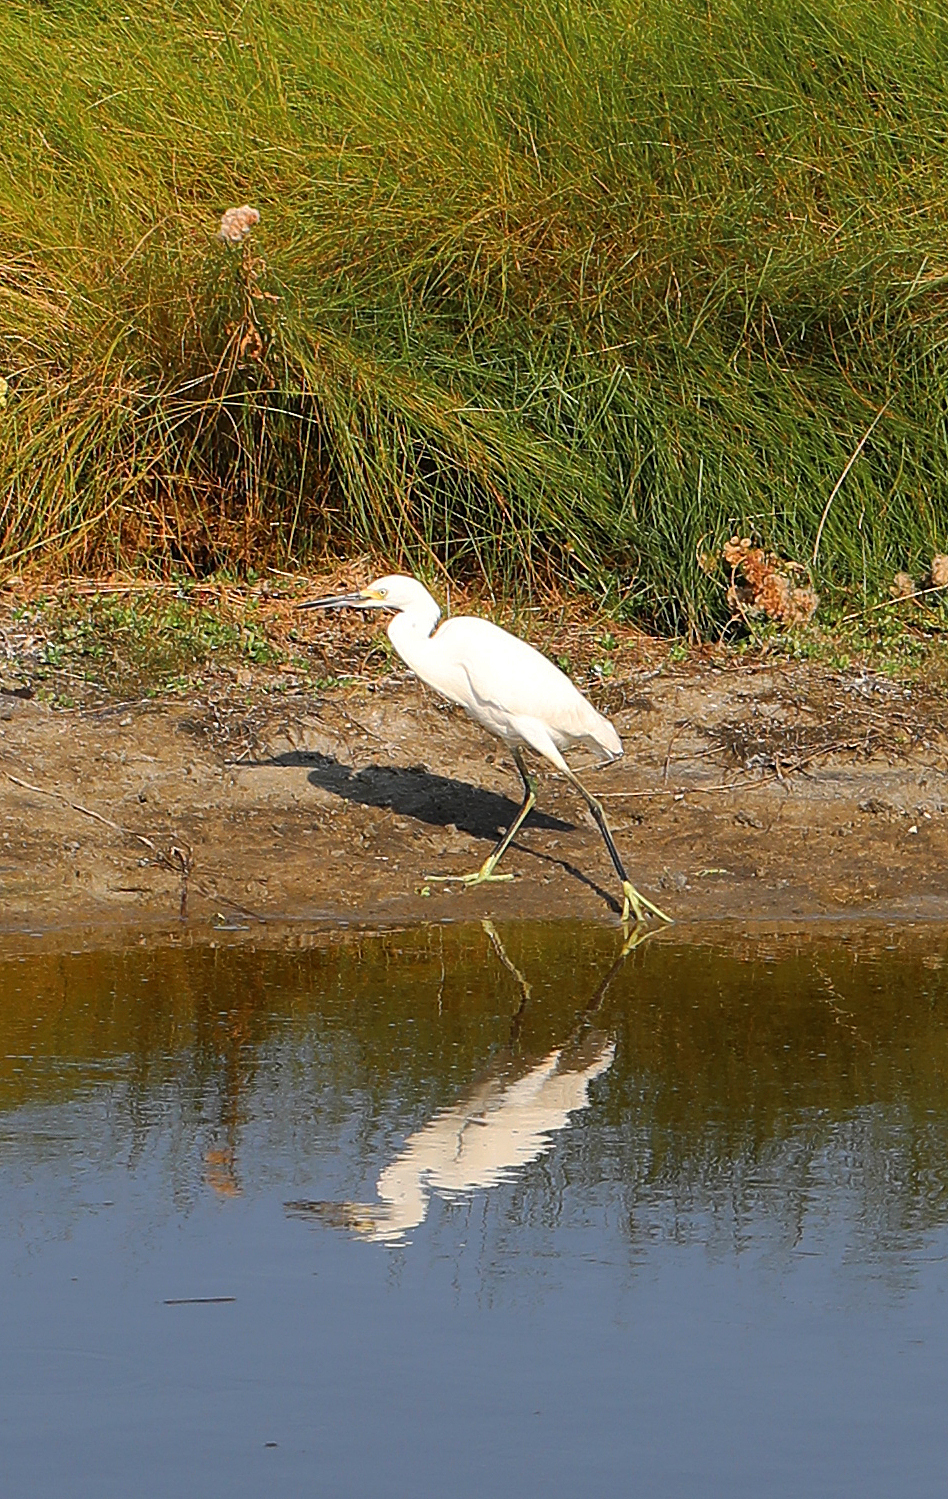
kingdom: Animalia
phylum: Chordata
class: Aves
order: Pelecaniformes
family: Ardeidae
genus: Egretta
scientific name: Egretta thula
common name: Snowy egret
